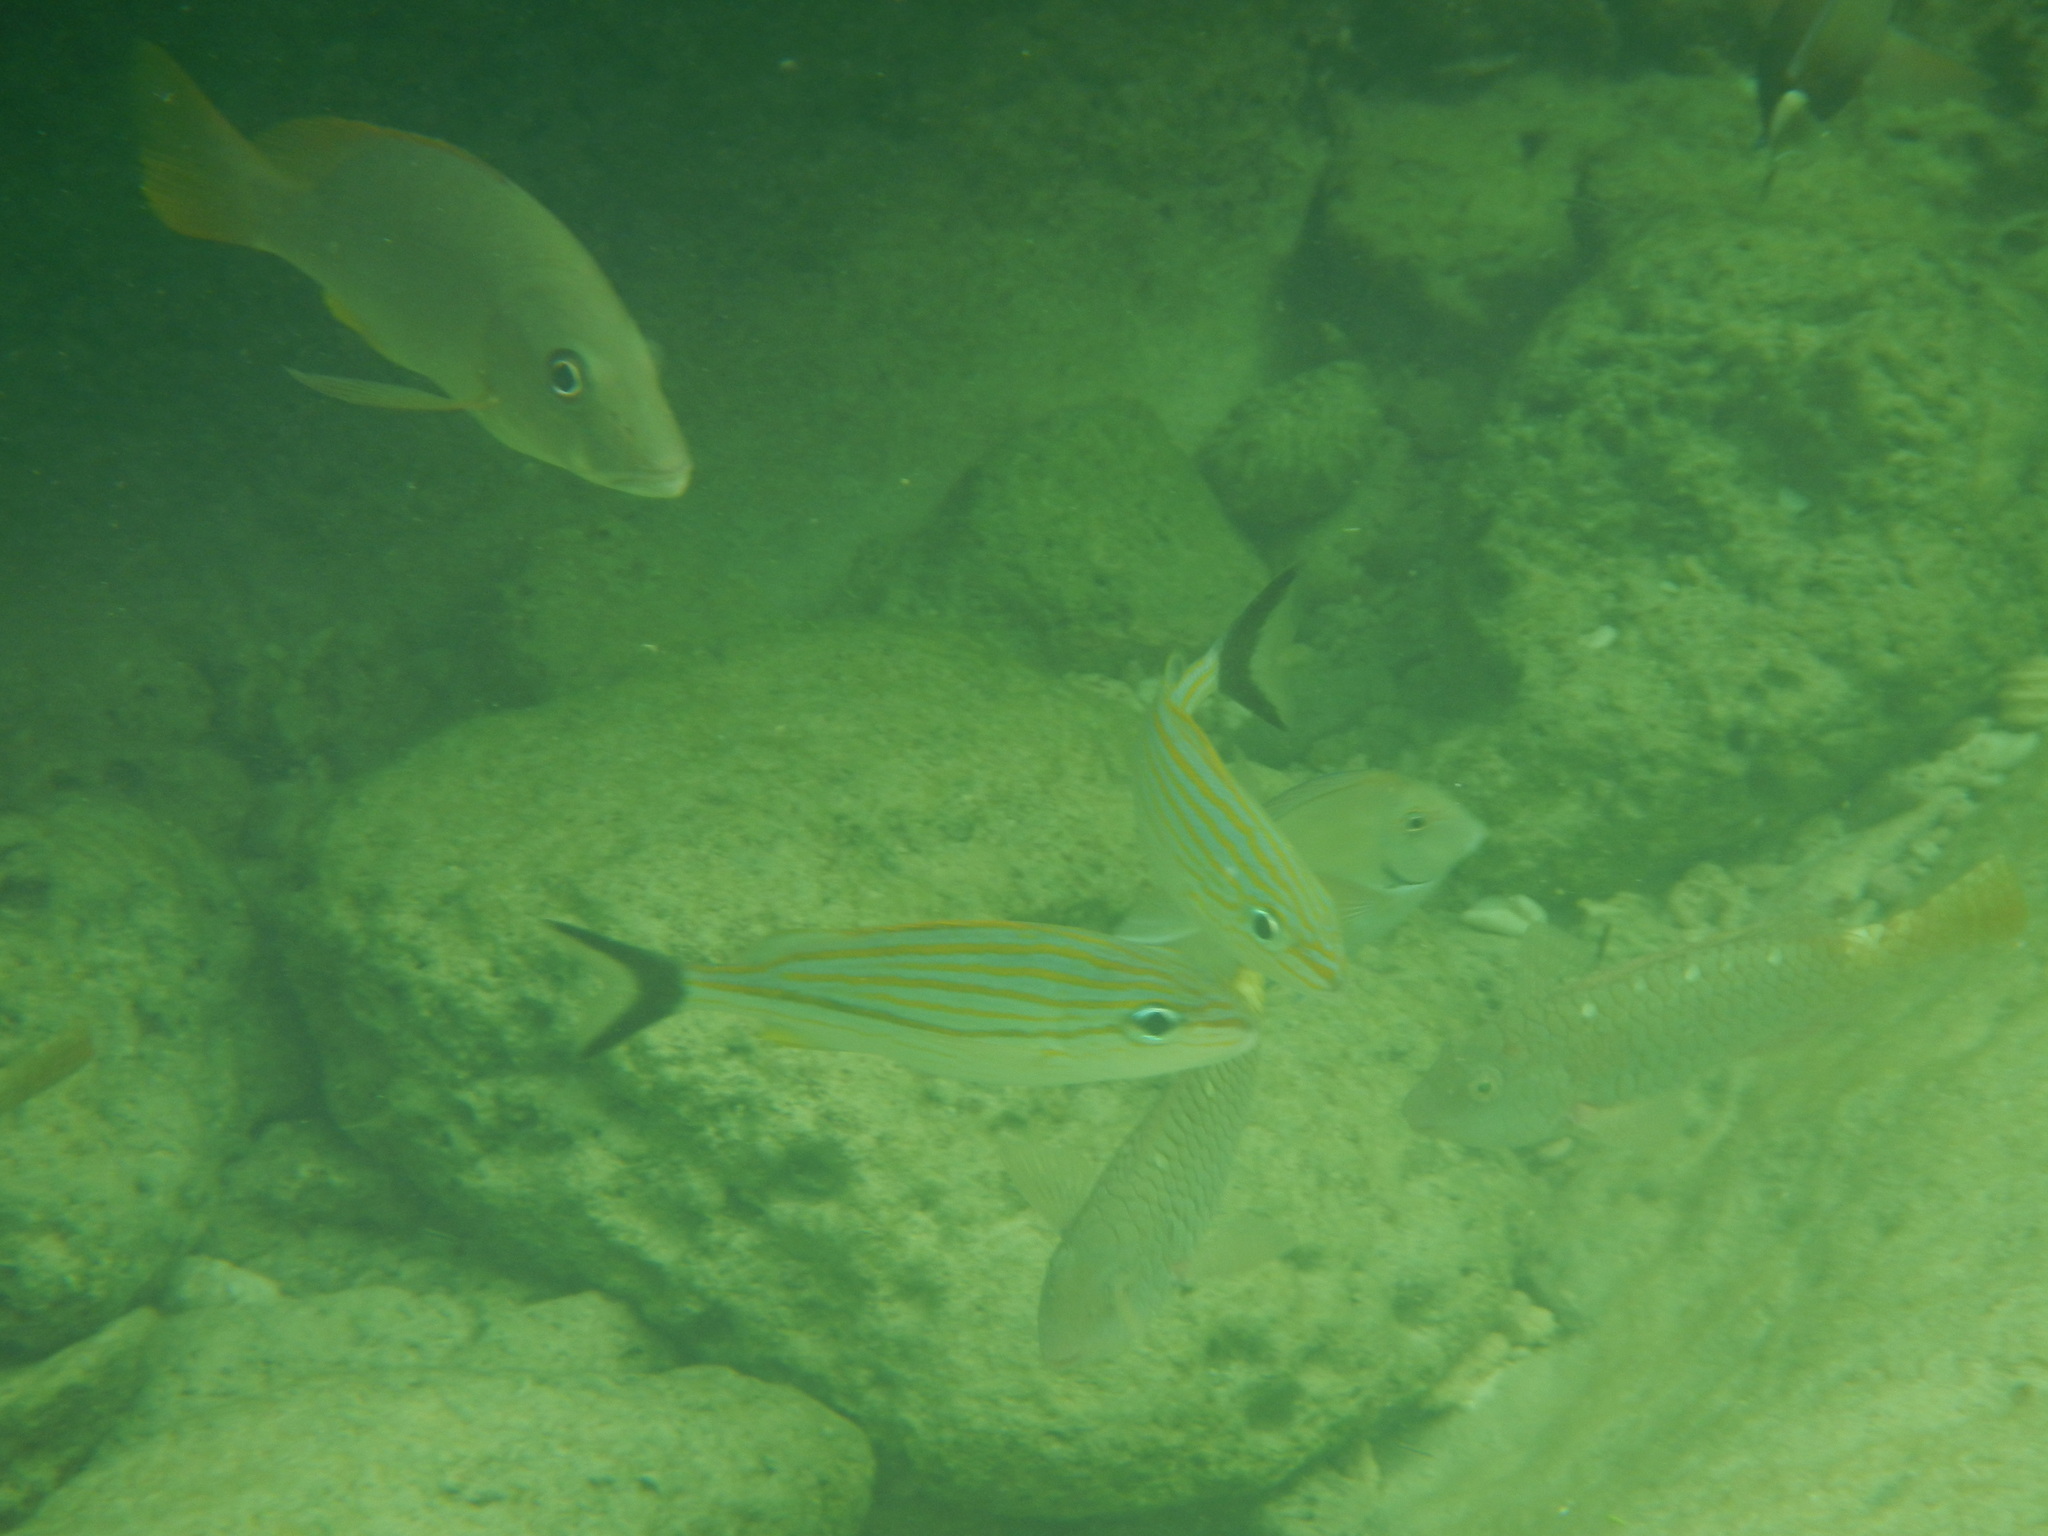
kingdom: Animalia
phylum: Chordata
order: Perciformes
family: Haemulidae
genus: Haemulon
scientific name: Haemulon sciurus
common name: Bluestriped grunt
